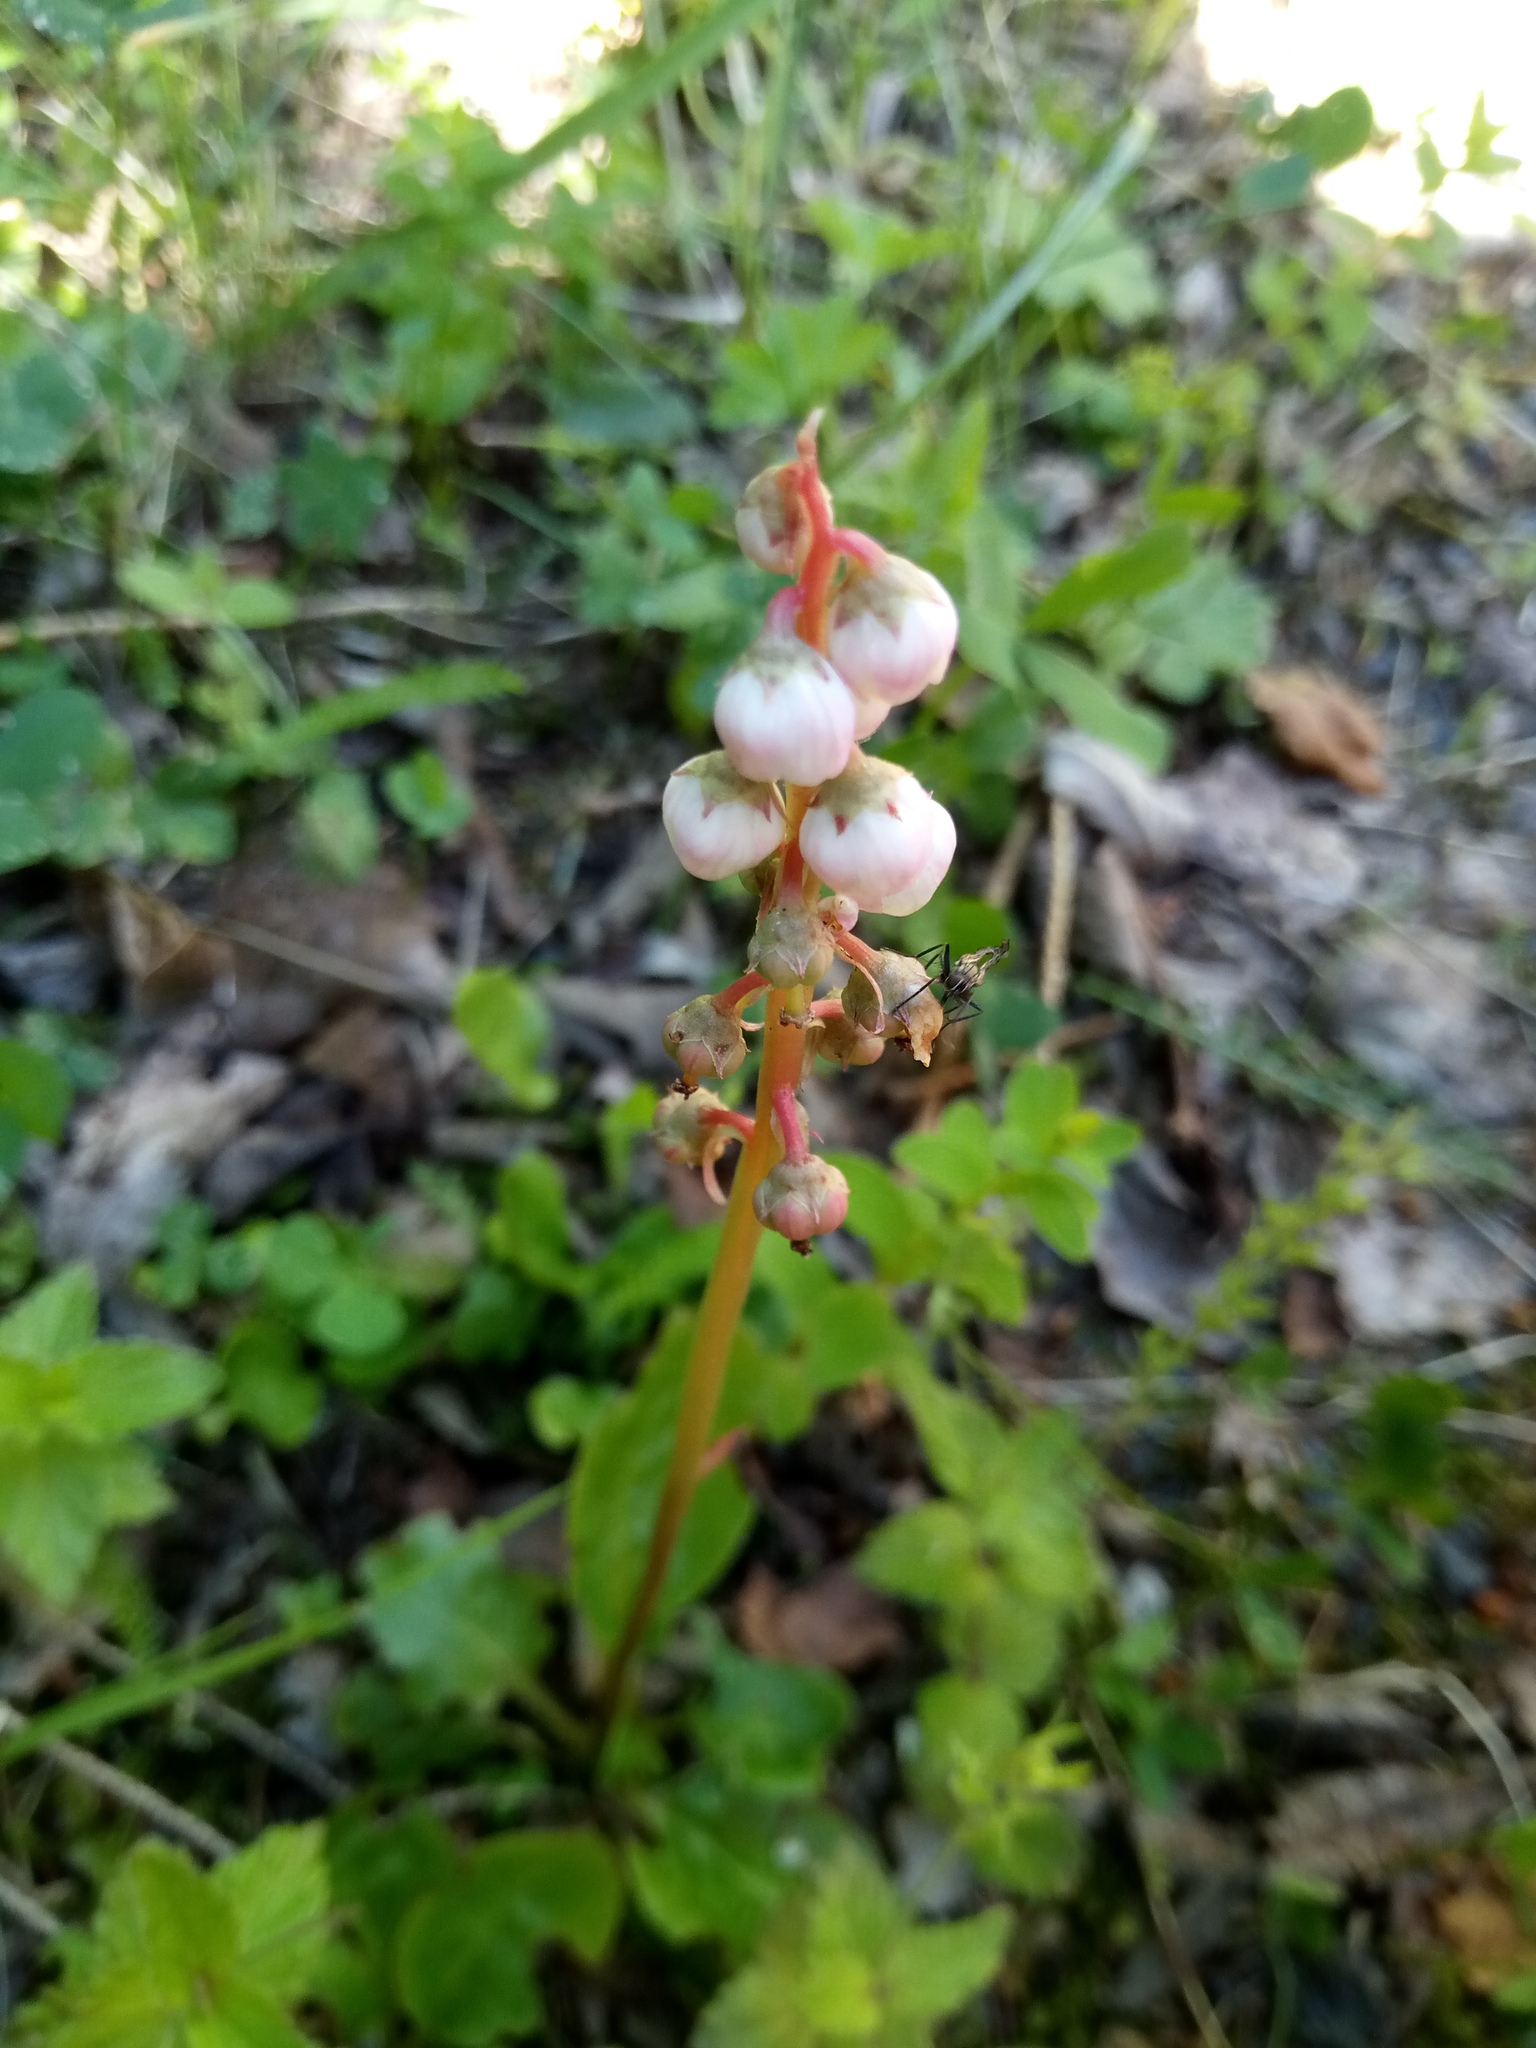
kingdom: Plantae
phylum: Tracheophyta
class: Magnoliopsida
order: Ericales
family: Ericaceae
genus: Pyrola
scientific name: Pyrola minor
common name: Common wintergreen
